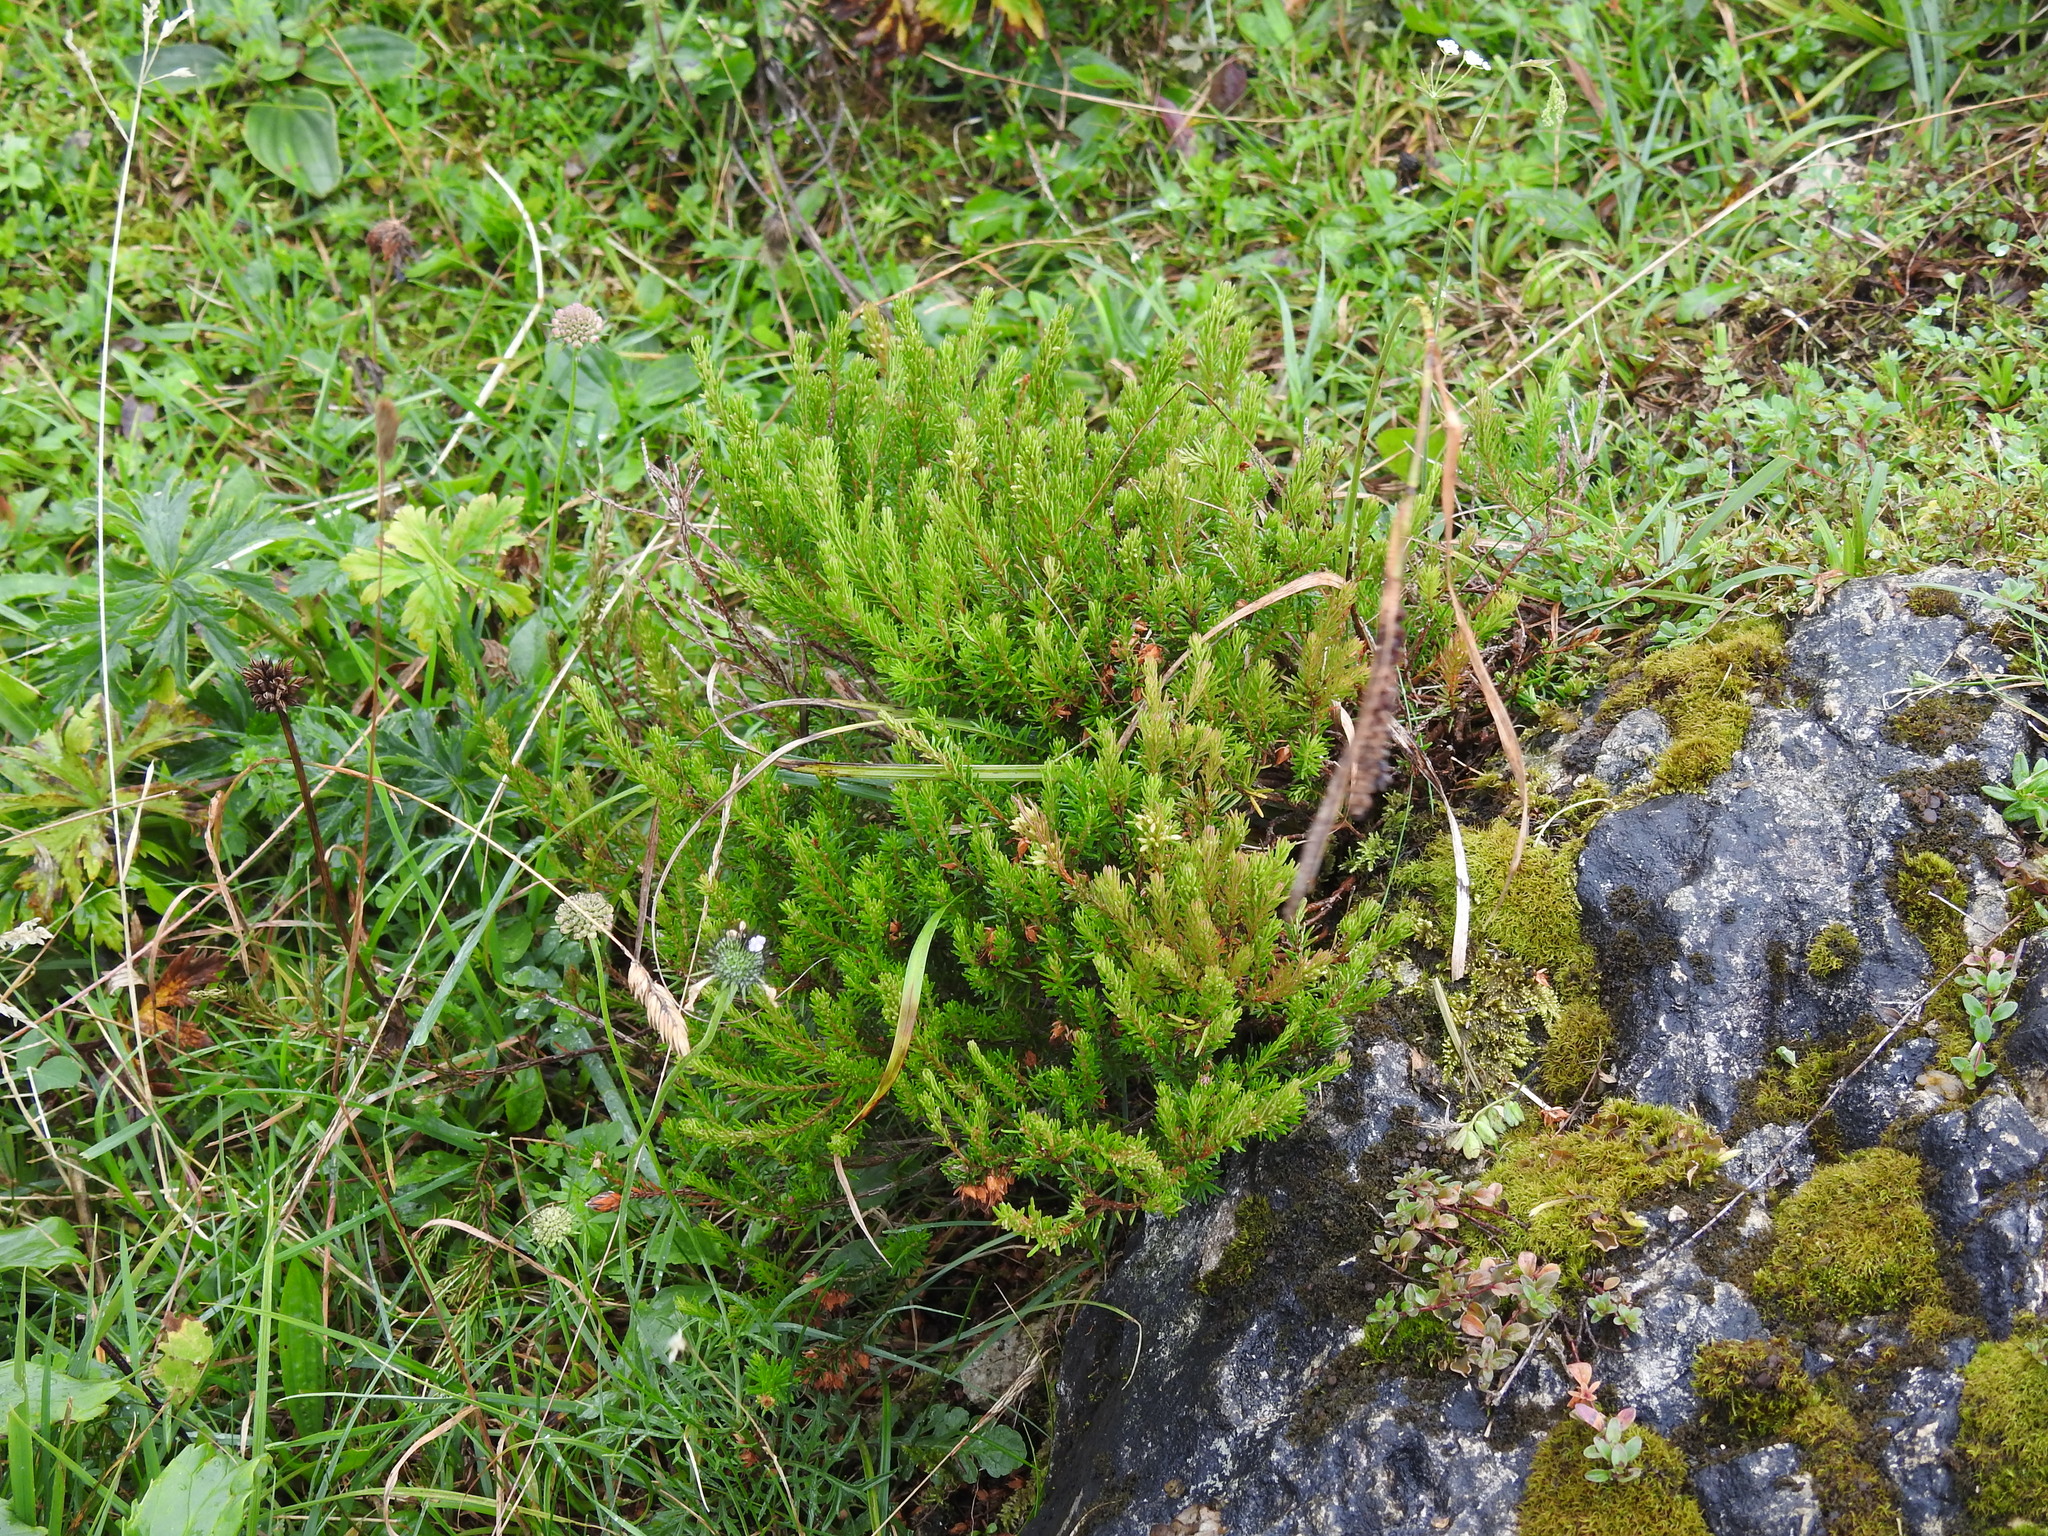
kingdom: Plantae
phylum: Tracheophyta
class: Magnoliopsida
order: Ericales
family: Ericaceae
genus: Erica
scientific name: Erica carnea
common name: Winter heath
